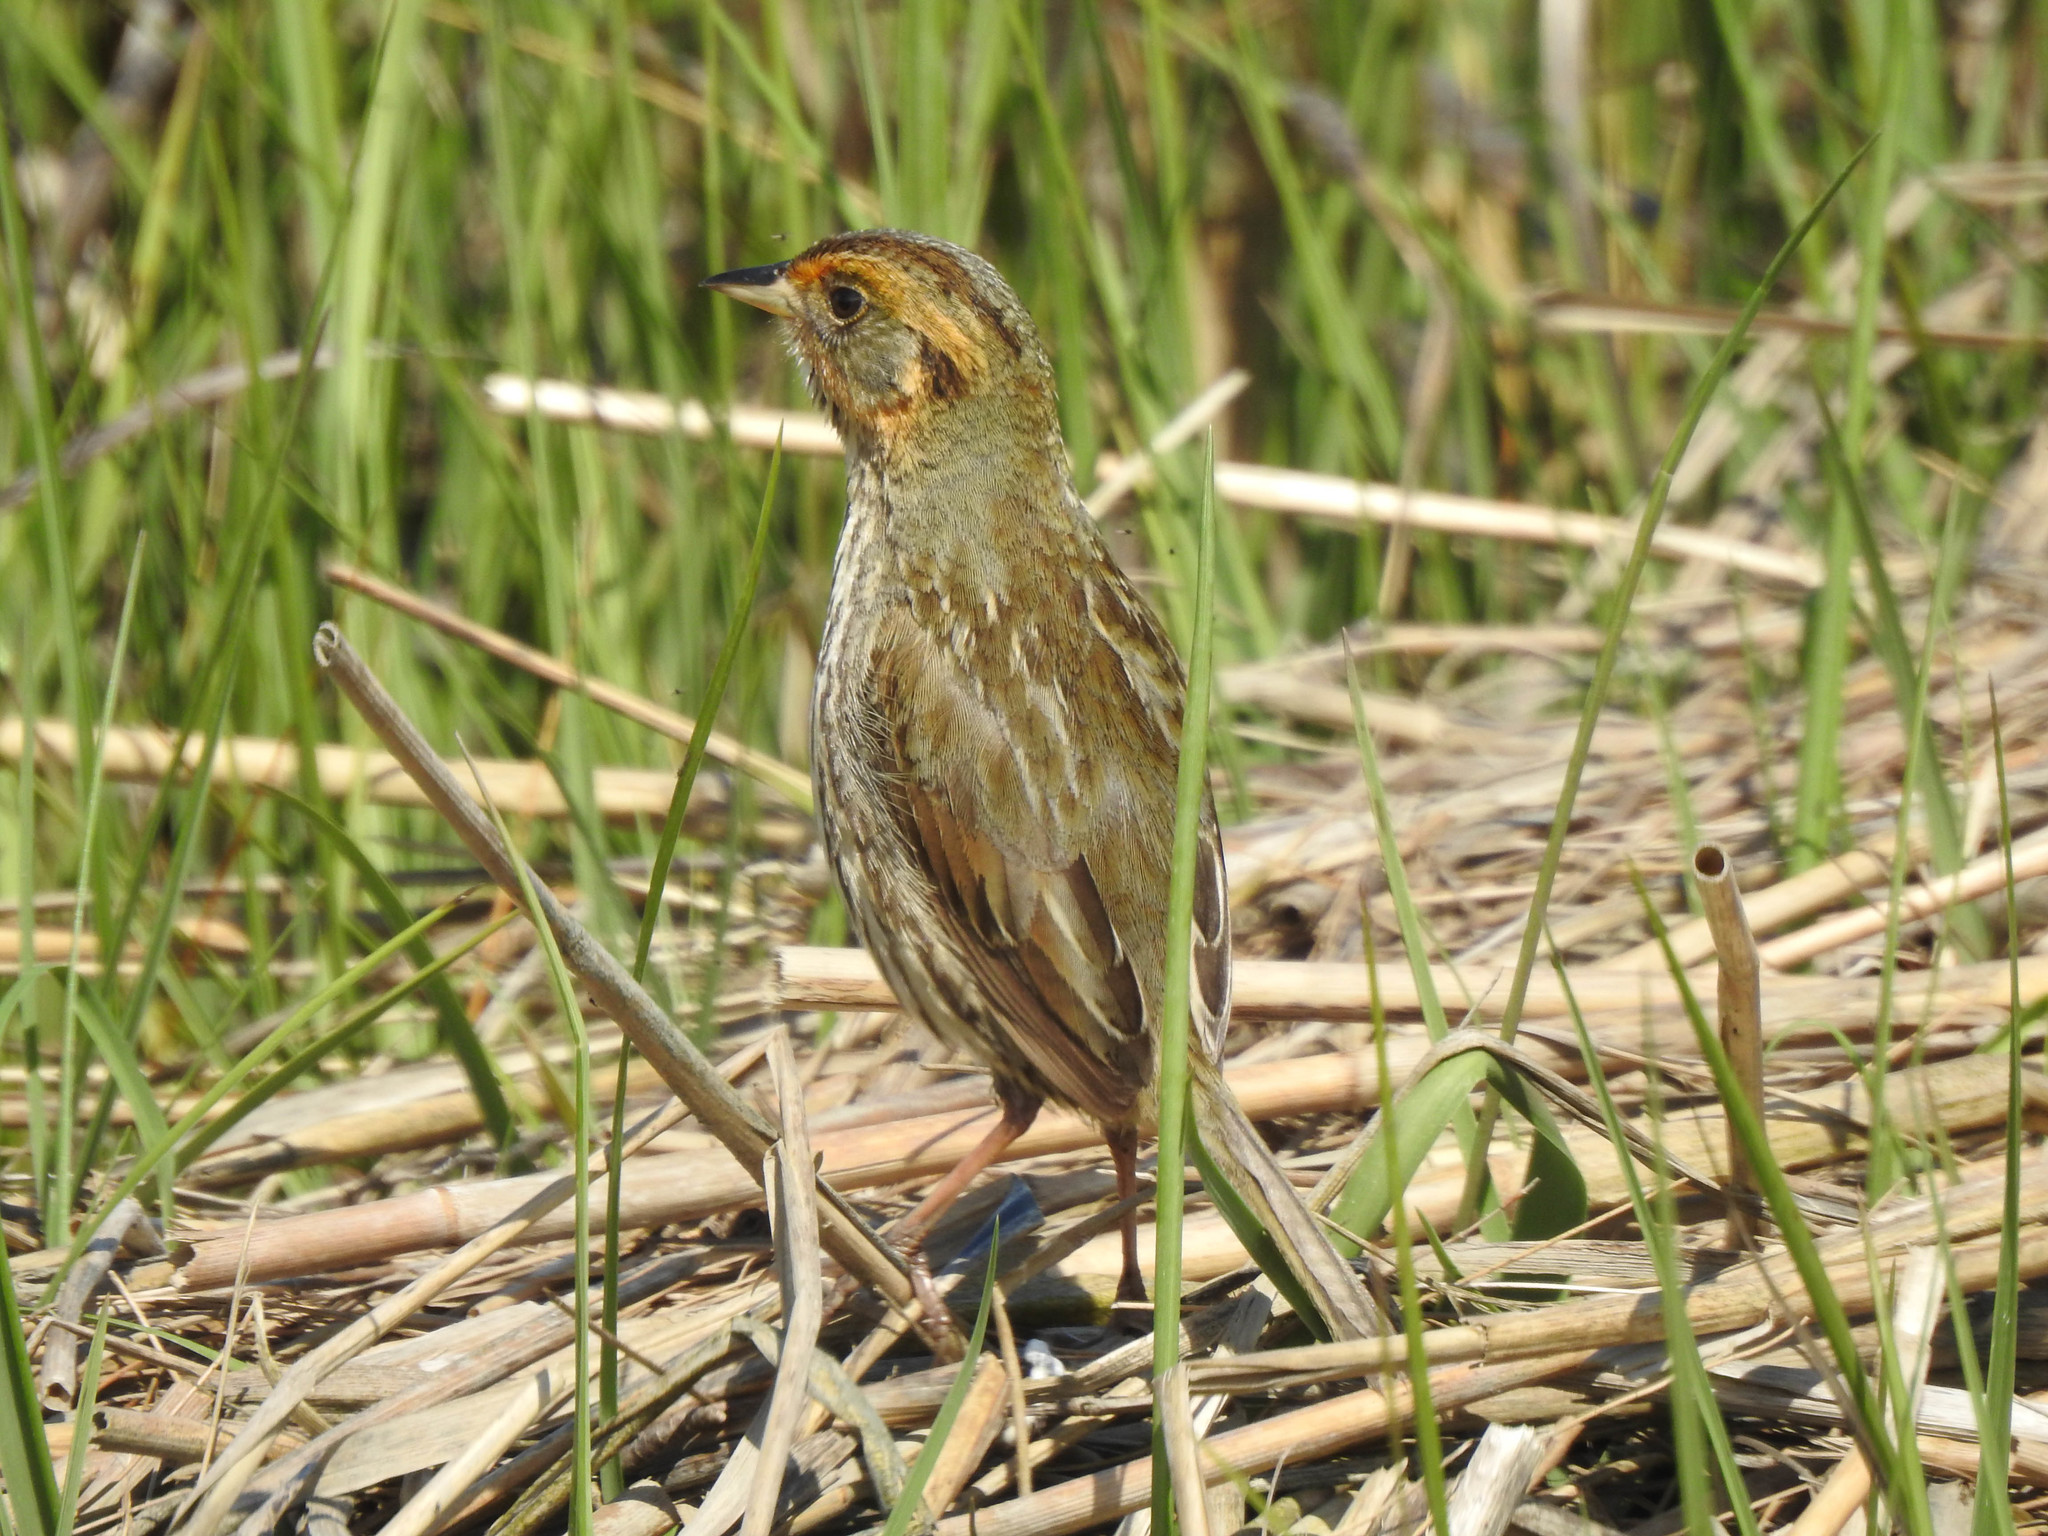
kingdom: Animalia
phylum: Chordata
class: Aves
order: Passeriformes
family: Passerellidae
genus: Ammospiza
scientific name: Ammospiza caudacuta
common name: Saltmarsh sparrow
